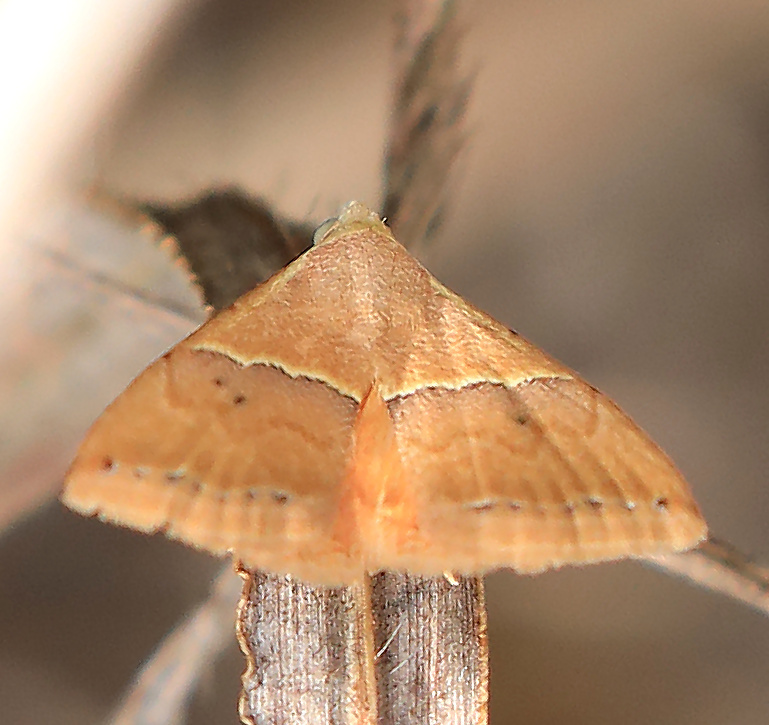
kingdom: Animalia
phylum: Arthropoda
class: Insecta
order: Lepidoptera
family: Noctuidae
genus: Eublemma
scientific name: Eublemma caffrorum
